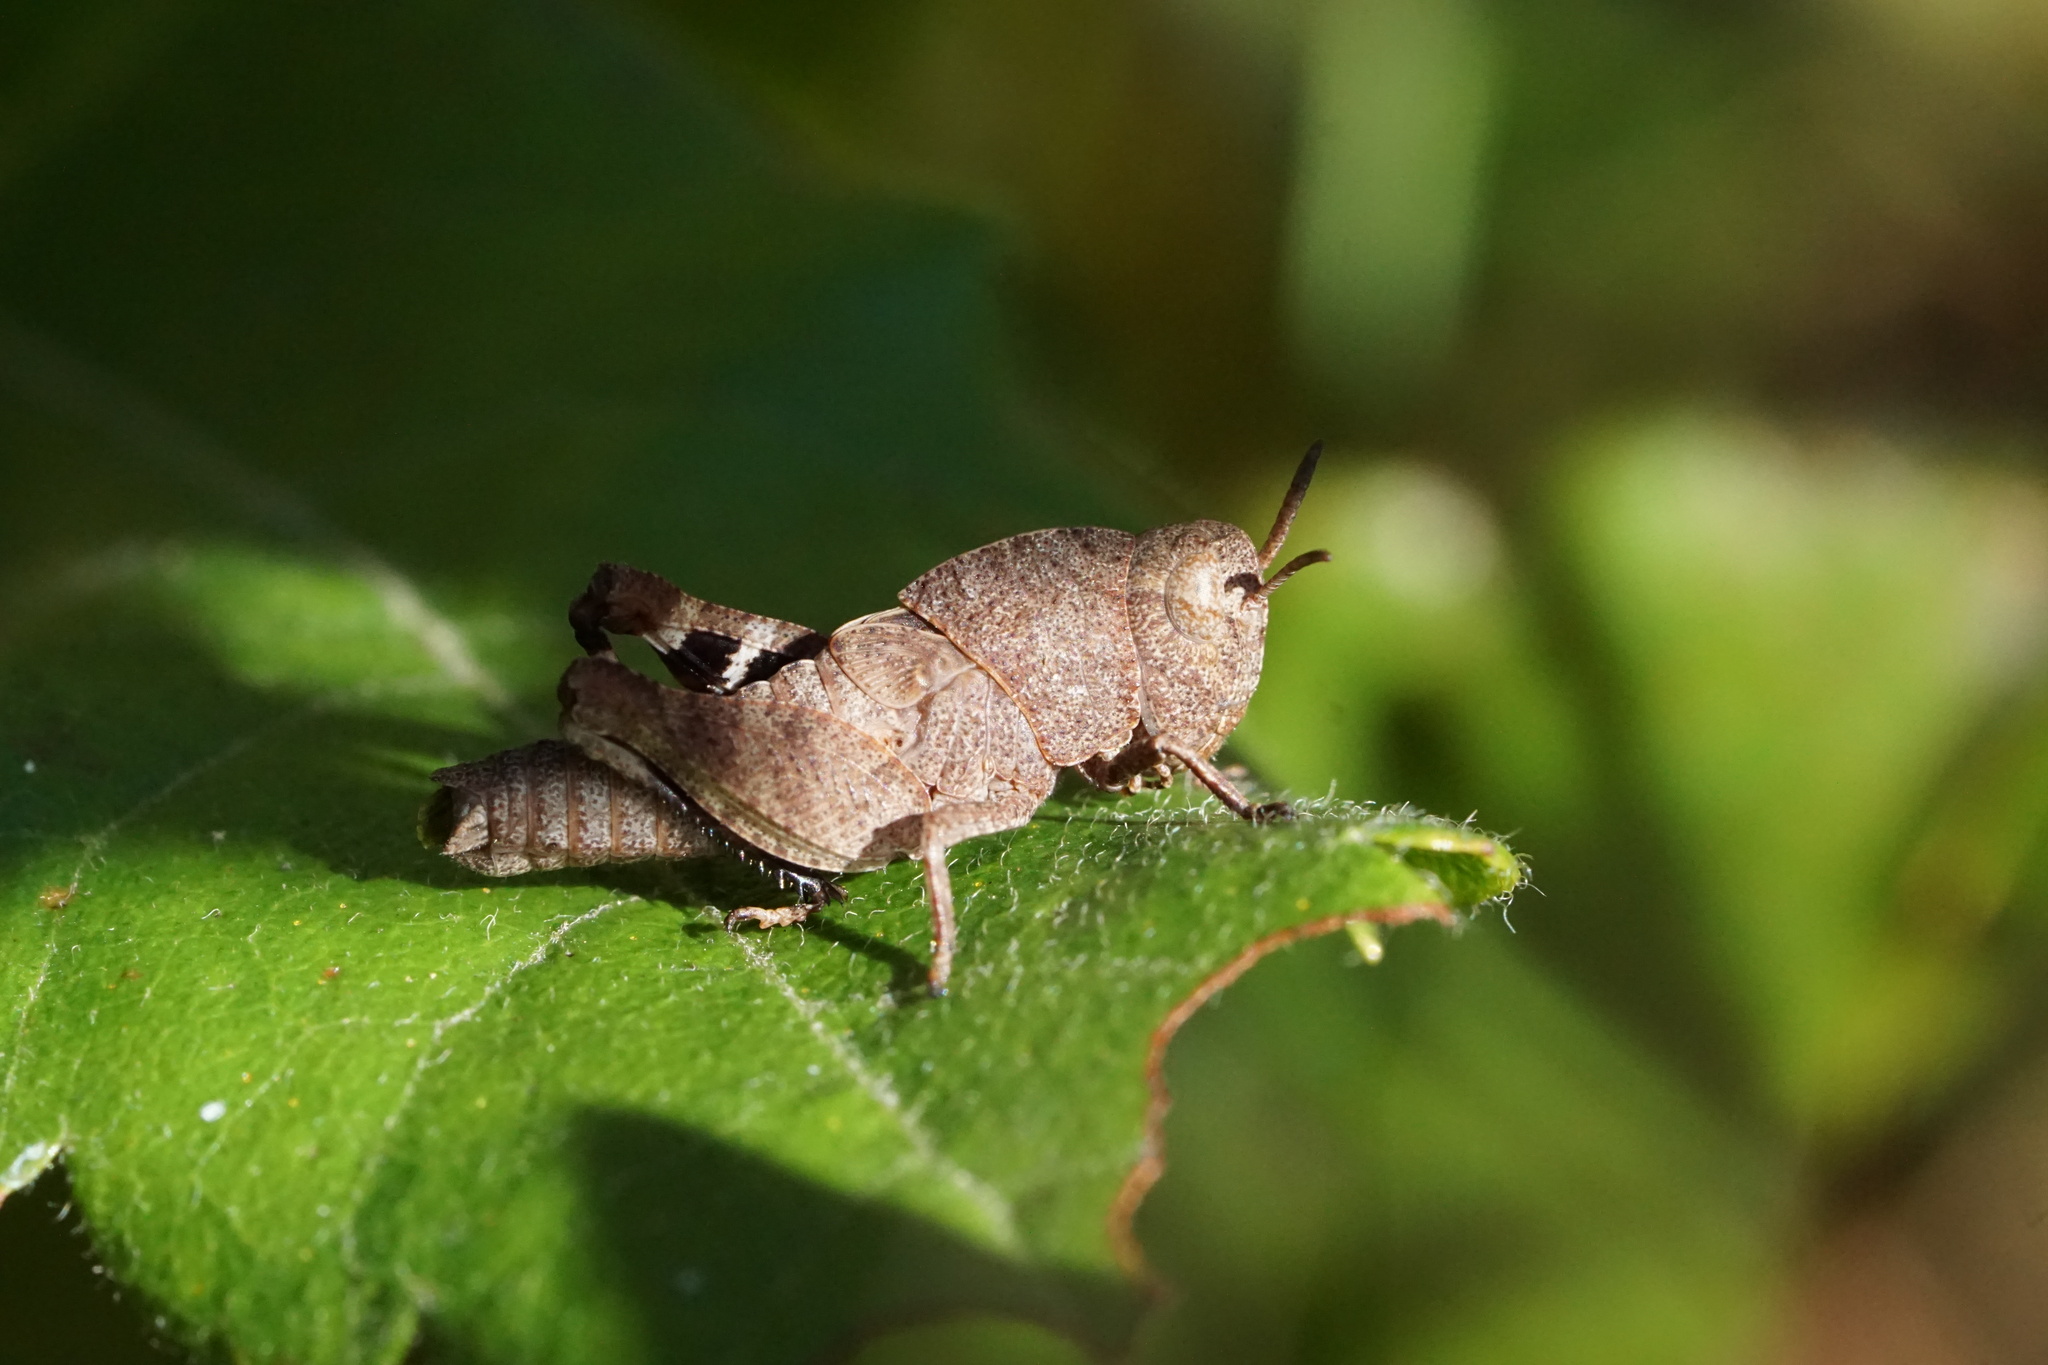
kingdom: Animalia
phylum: Arthropoda
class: Insecta
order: Orthoptera
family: Acrididae
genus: Arphia
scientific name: Arphia sulphurea
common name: Spring yellow-winged locust
